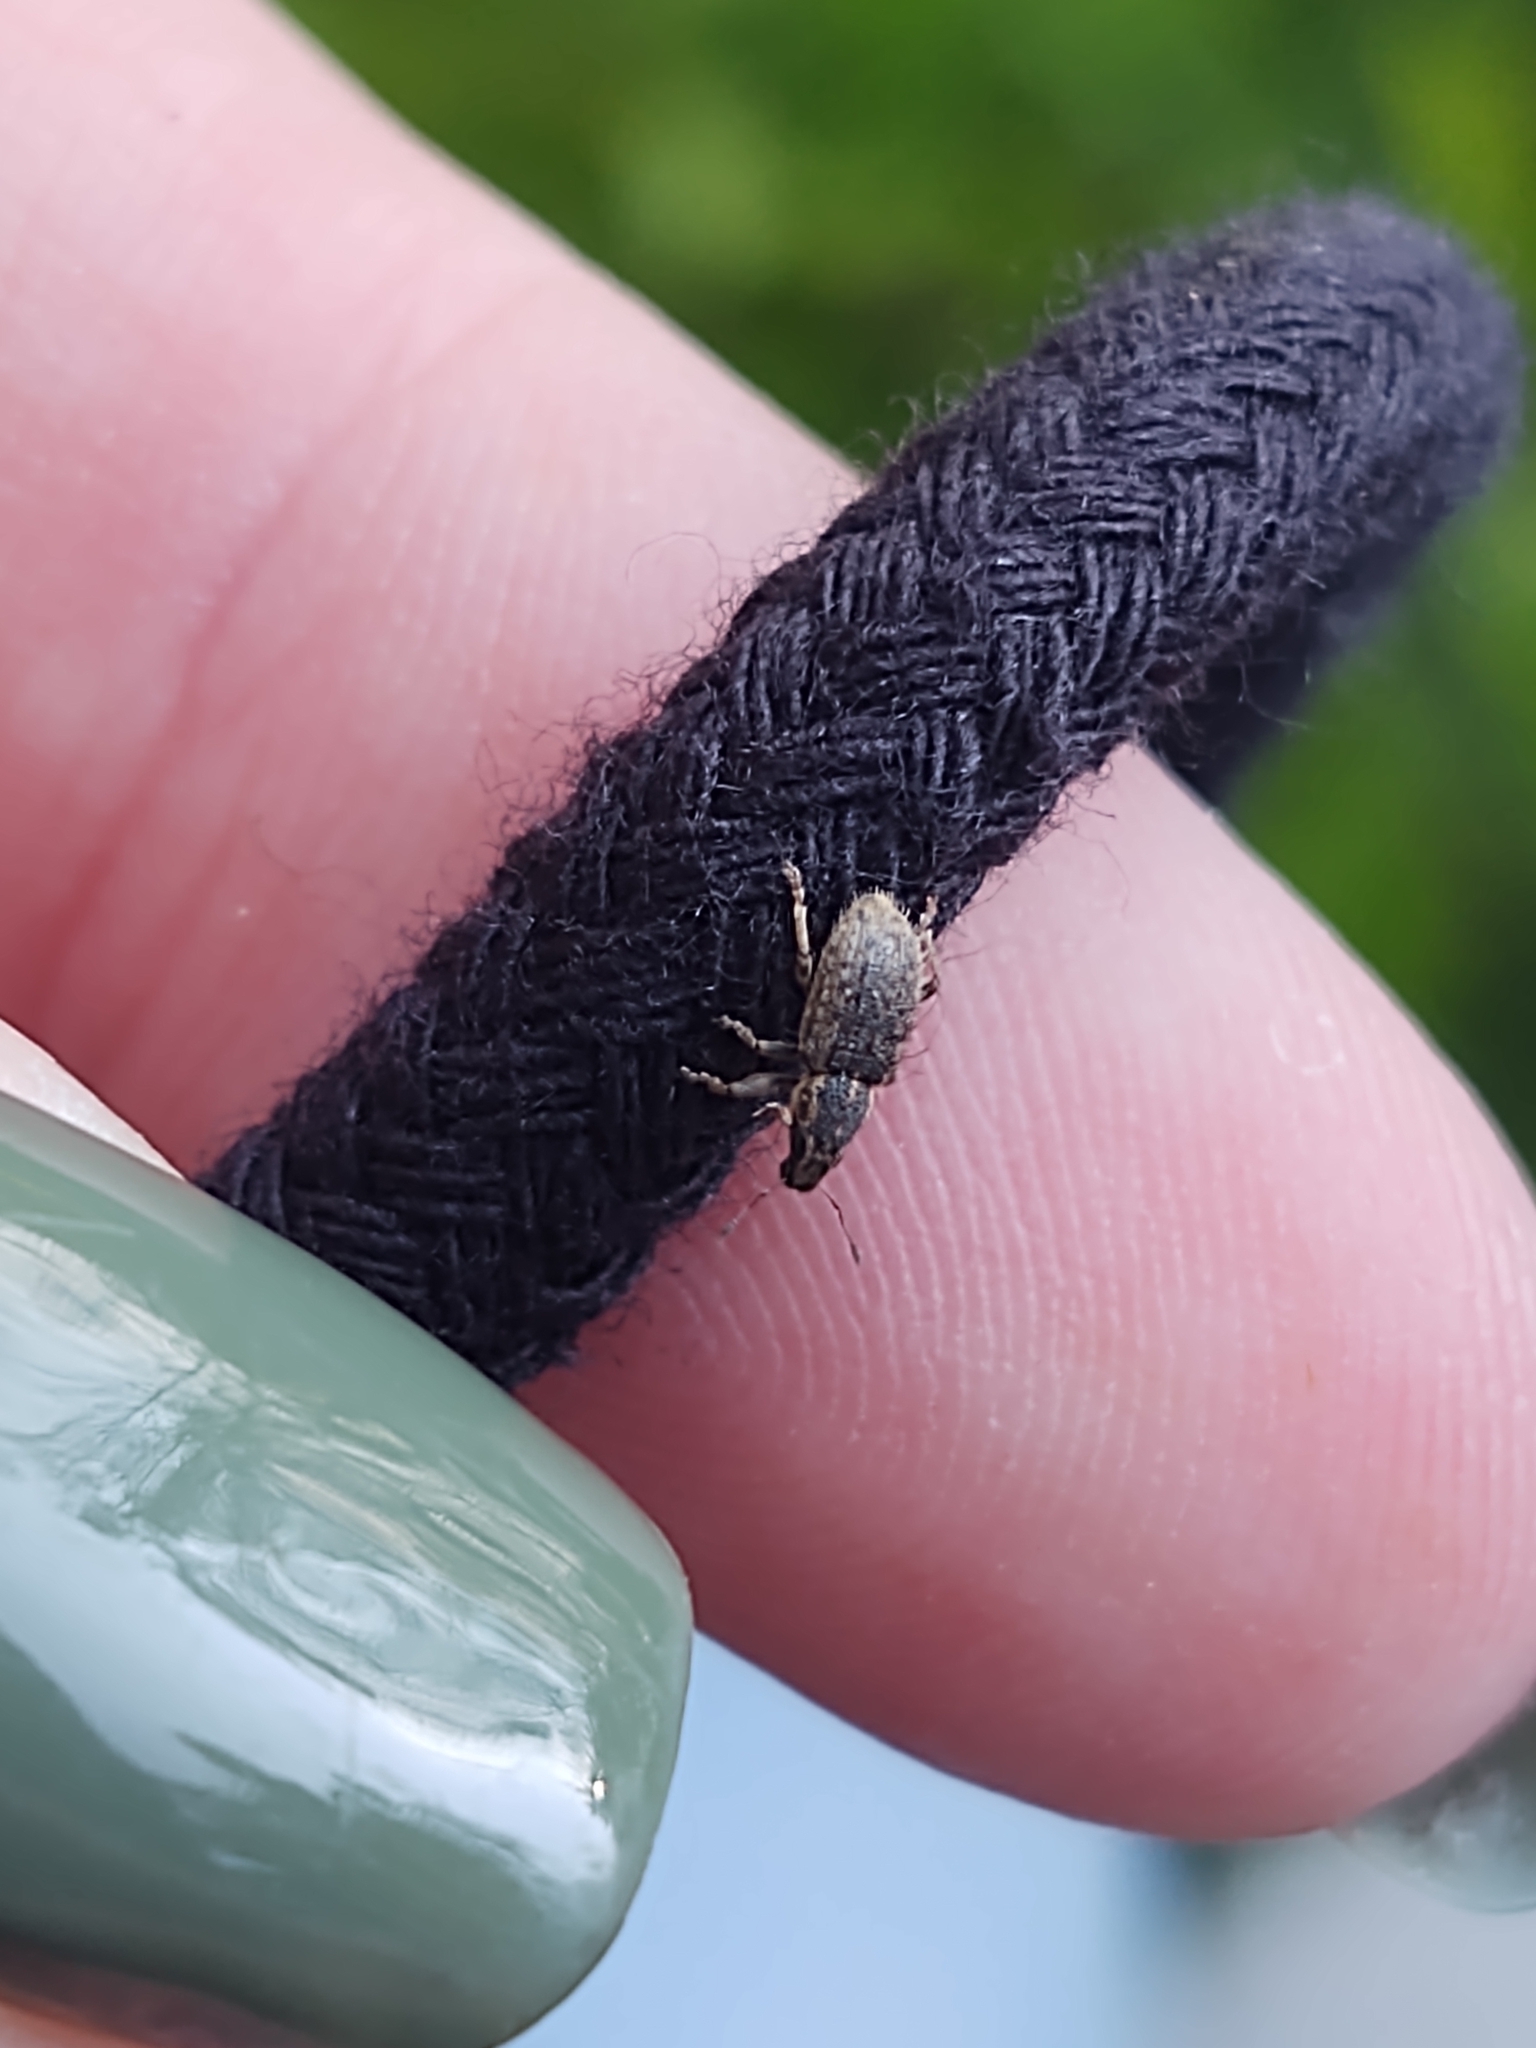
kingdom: Animalia
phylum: Arthropoda
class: Insecta
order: Coleoptera
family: Curculionidae
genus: Sitona
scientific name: Sitona hispidulus
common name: Clover weevil
